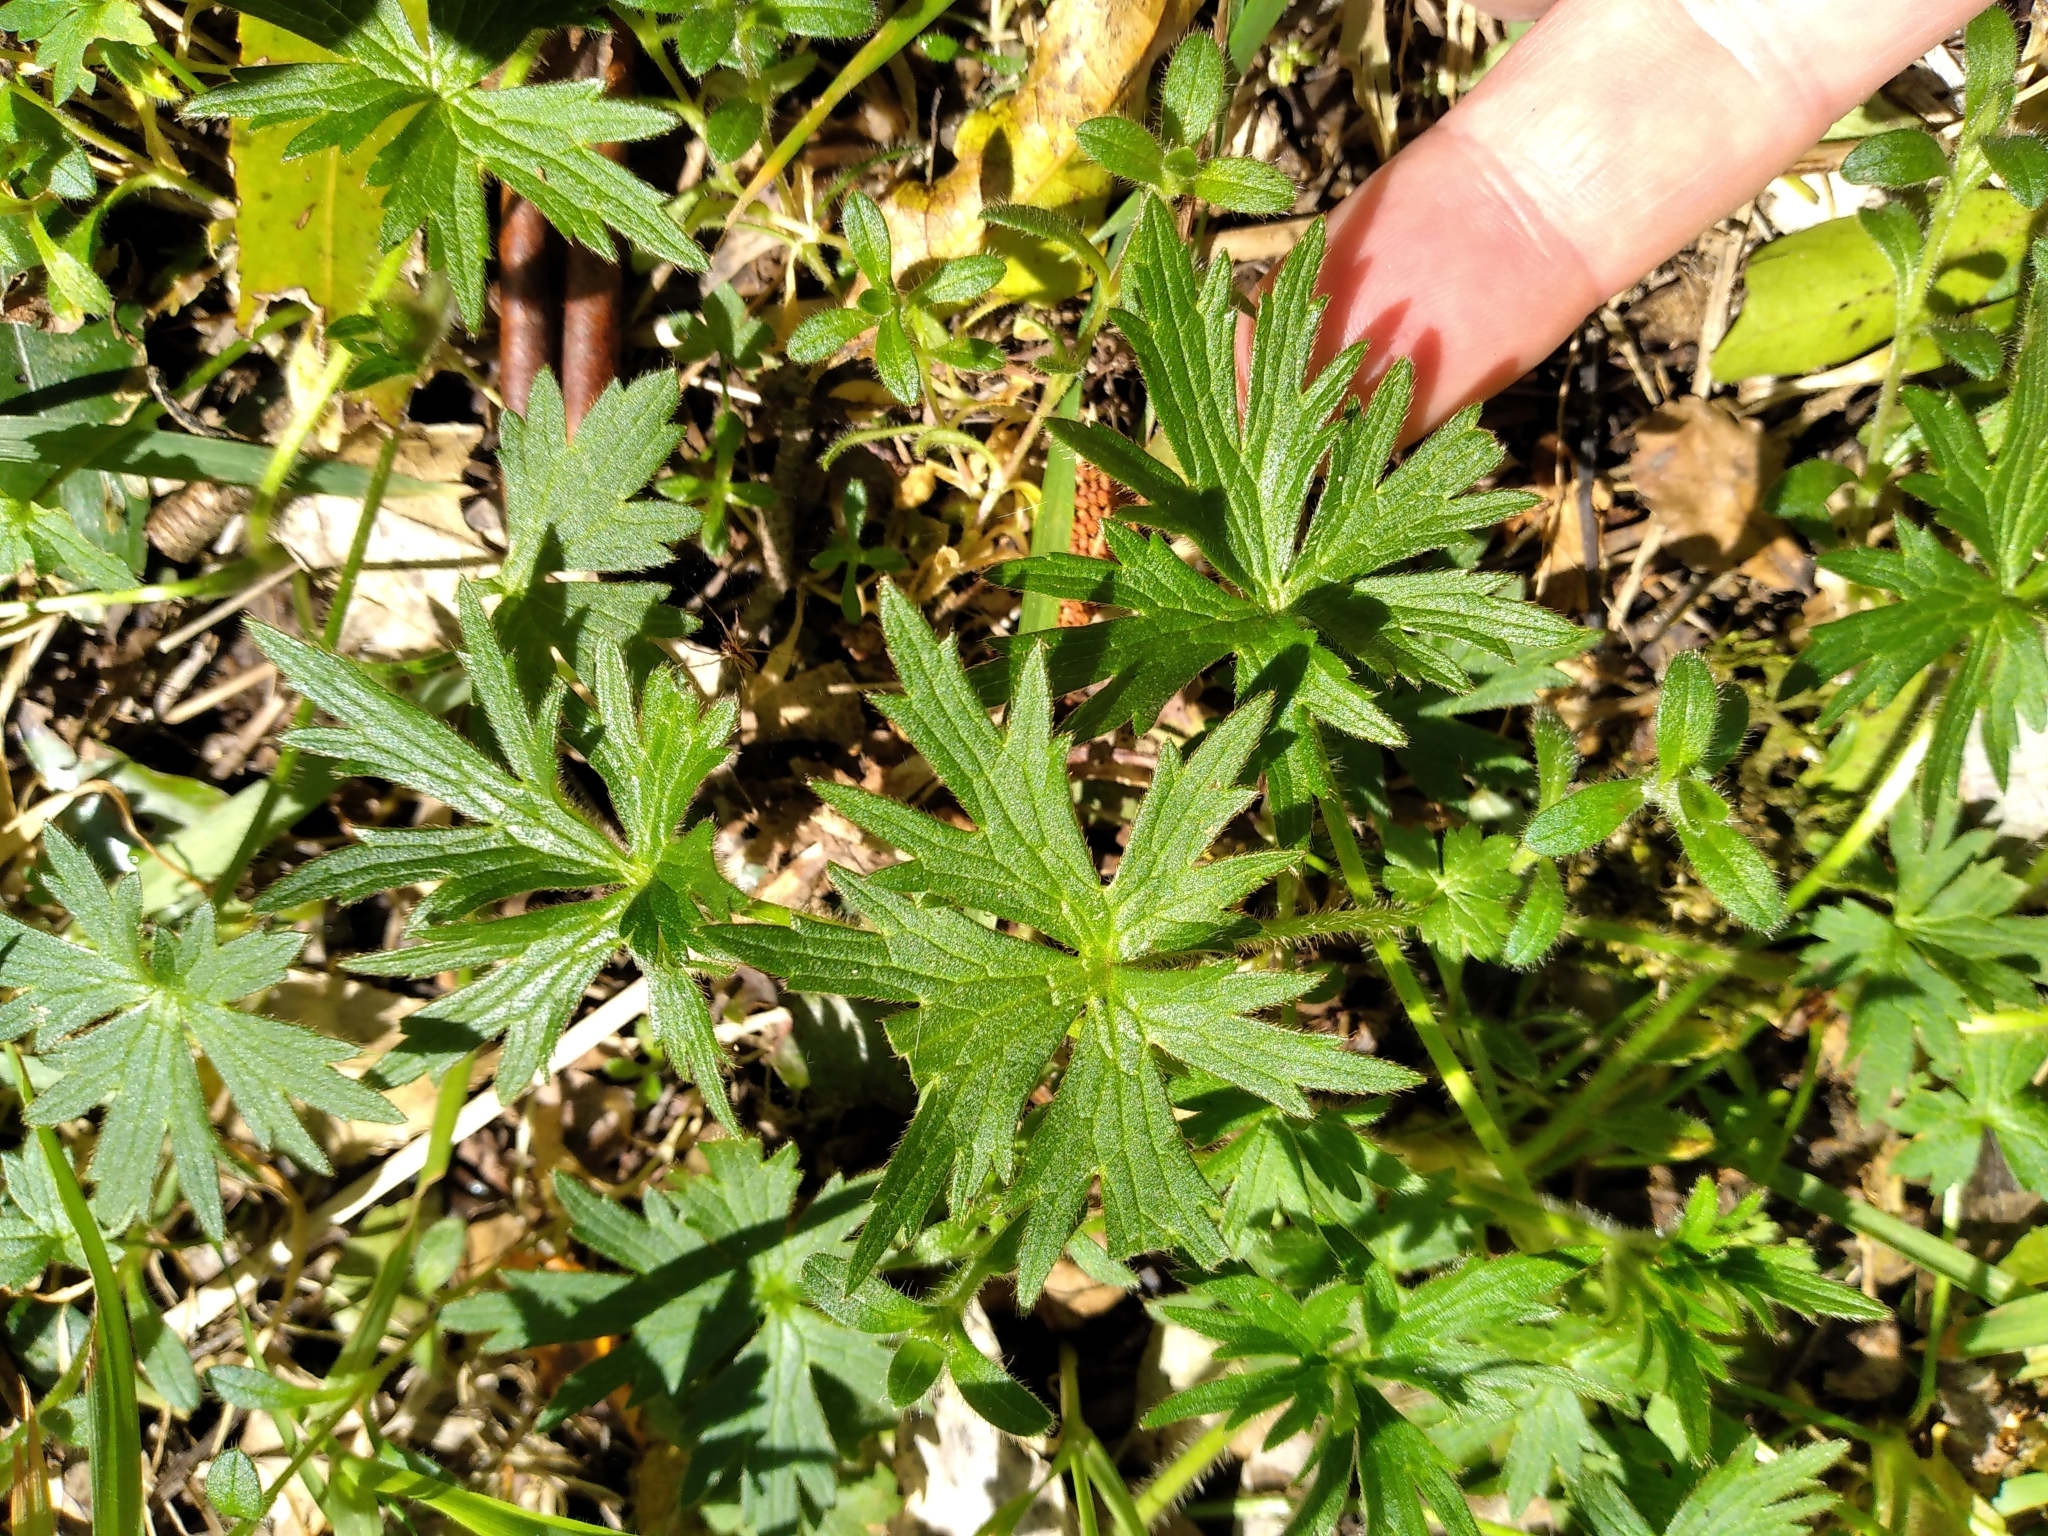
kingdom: Plantae
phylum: Tracheophyta
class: Magnoliopsida
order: Ranunculales
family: Ranunculaceae
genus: Ranunculus
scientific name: Ranunculus acris
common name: Meadow buttercup
